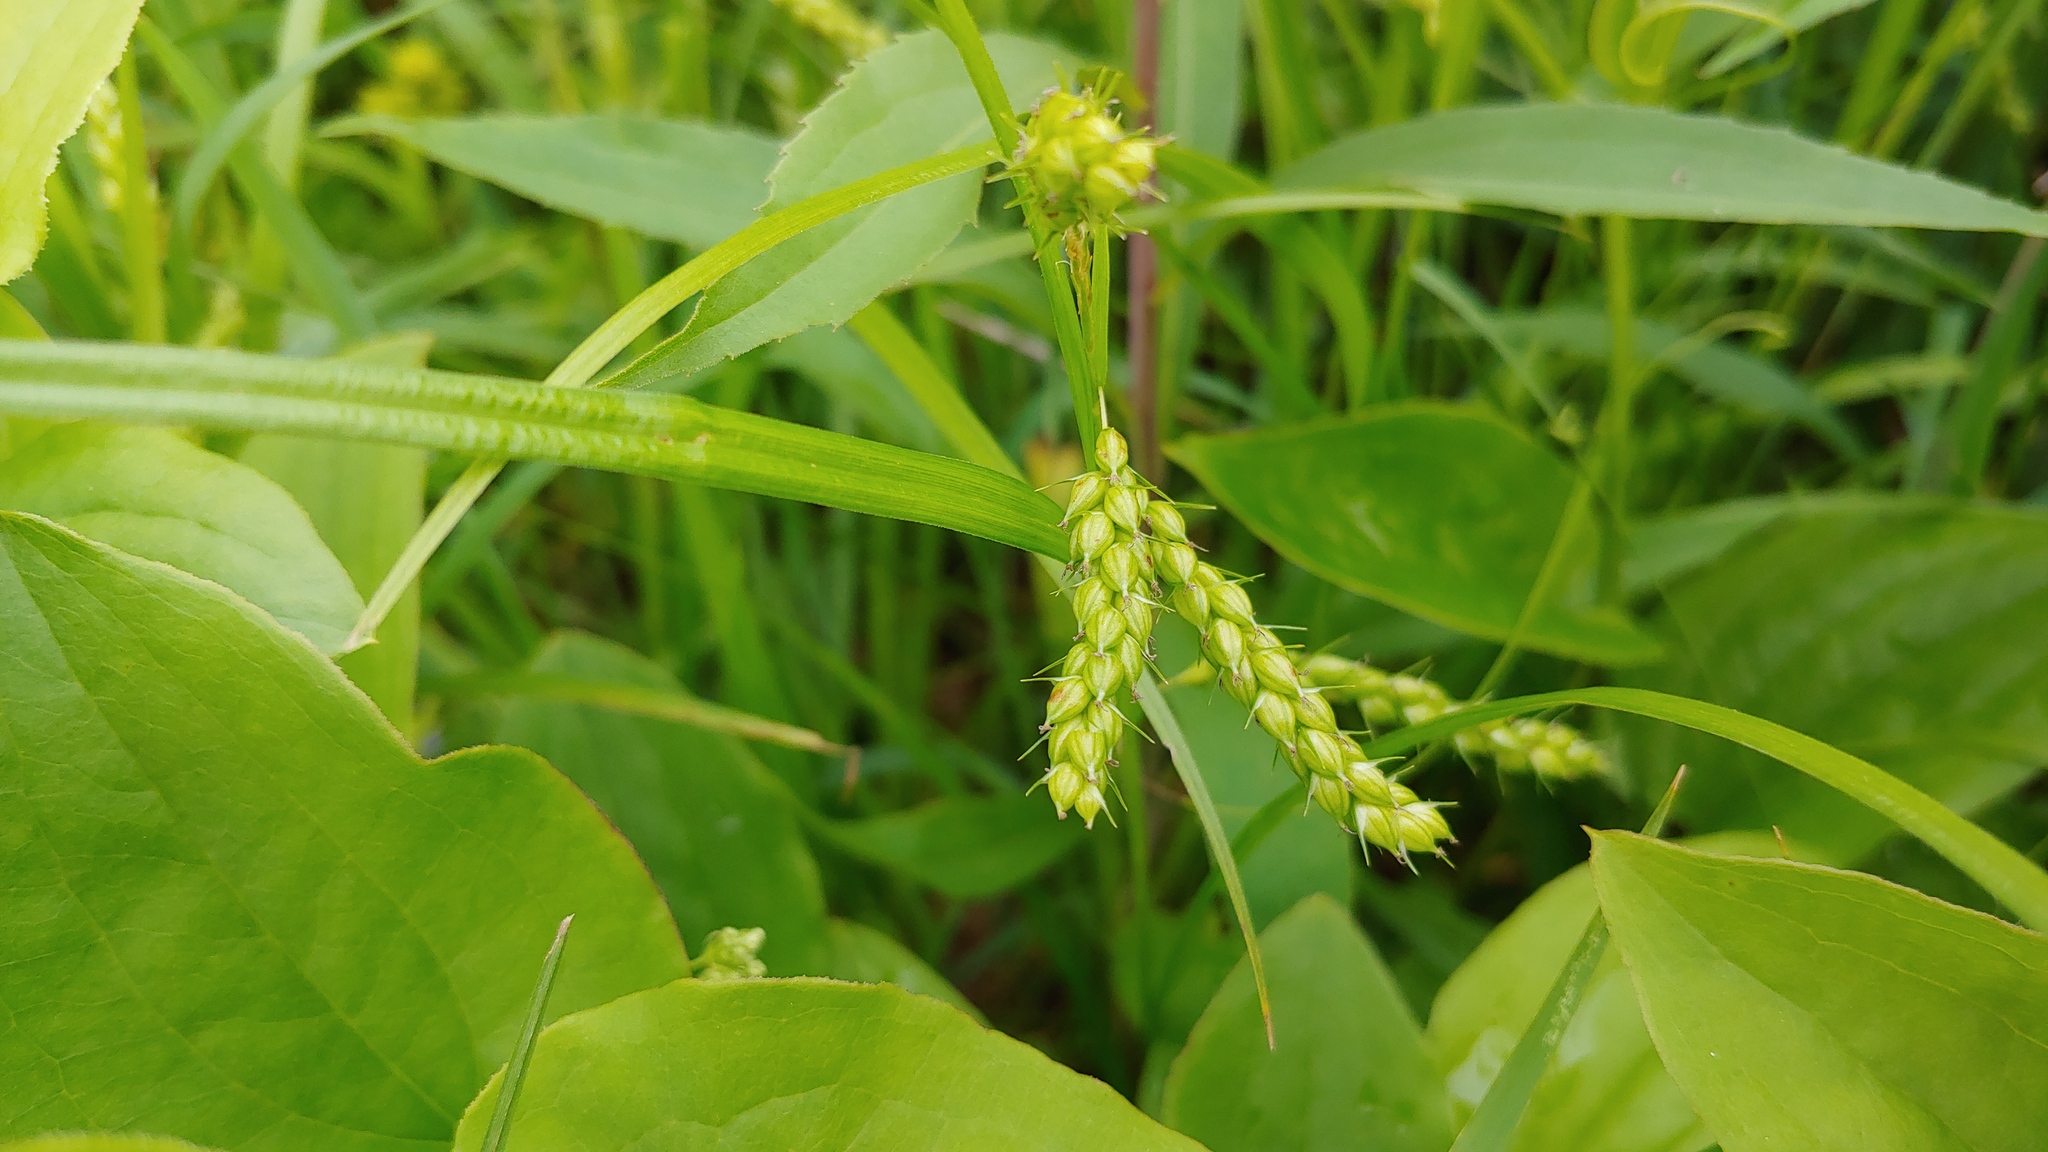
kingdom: Plantae
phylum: Tracheophyta
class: Liliopsida
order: Poales
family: Cyperaceae
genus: Carex
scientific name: Carex davisii
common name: Davis' sedge
